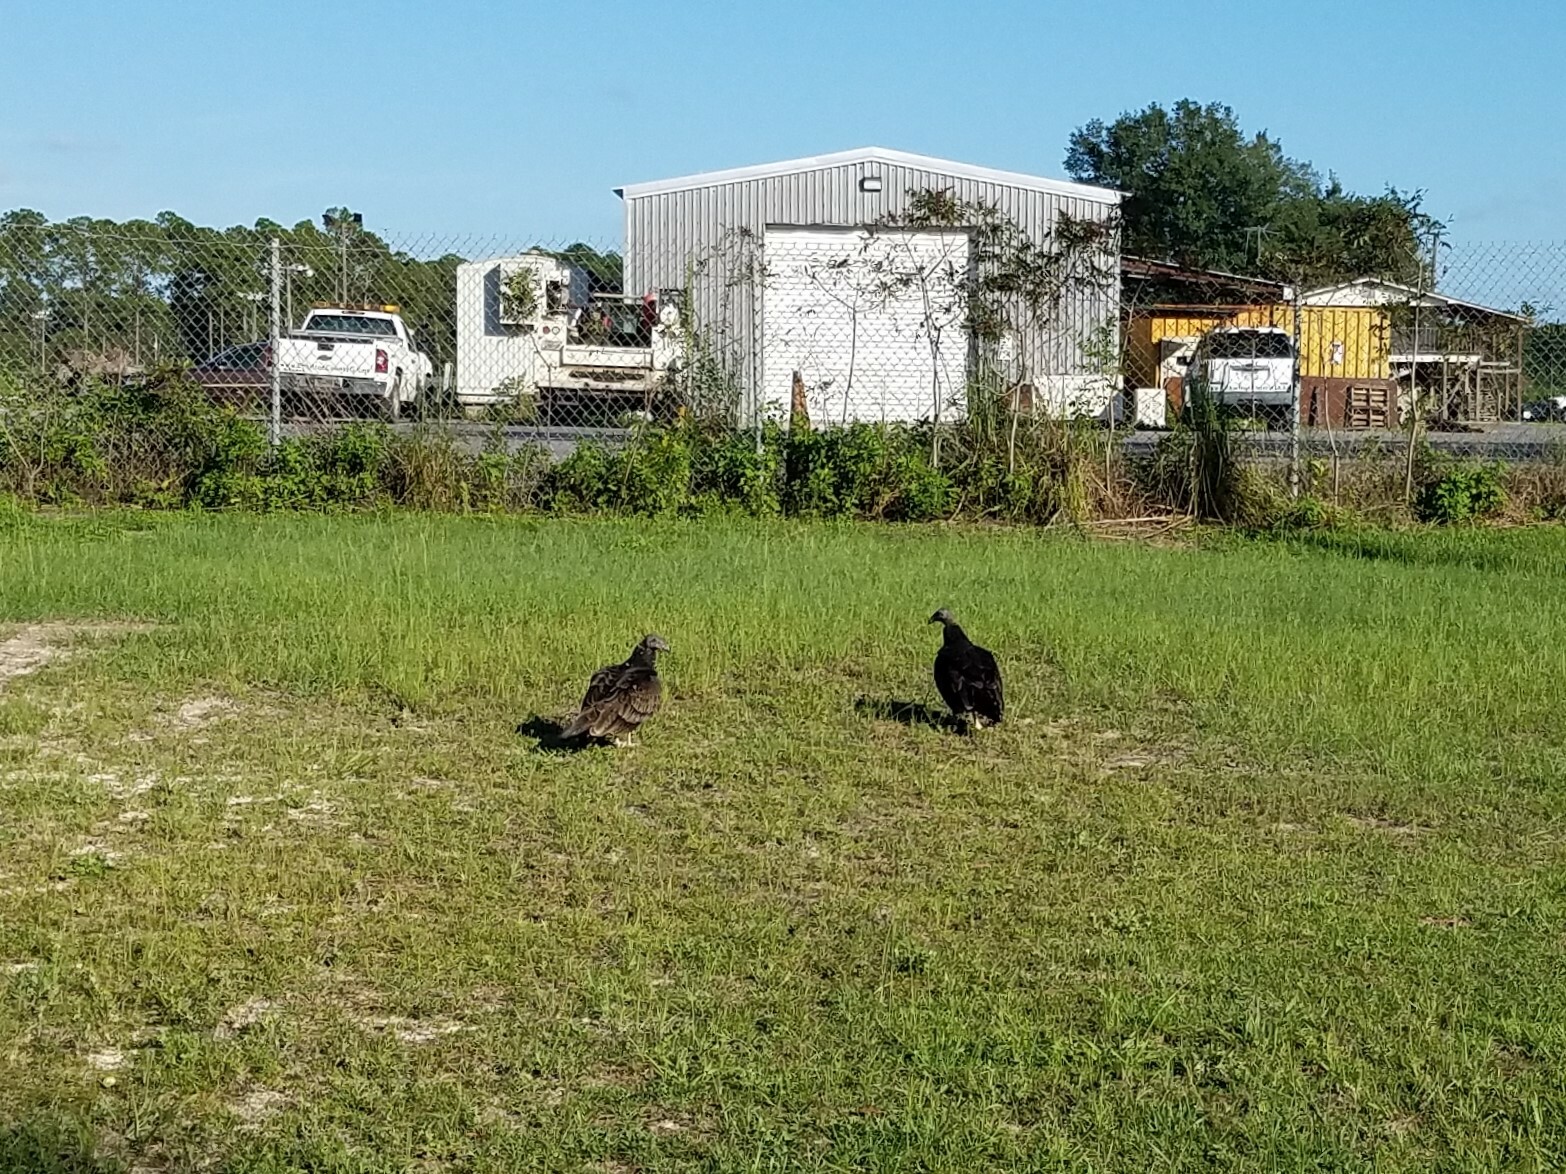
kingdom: Animalia
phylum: Chordata
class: Aves
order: Accipitriformes
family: Cathartidae
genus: Cathartes
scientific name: Cathartes aura
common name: Turkey vulture
